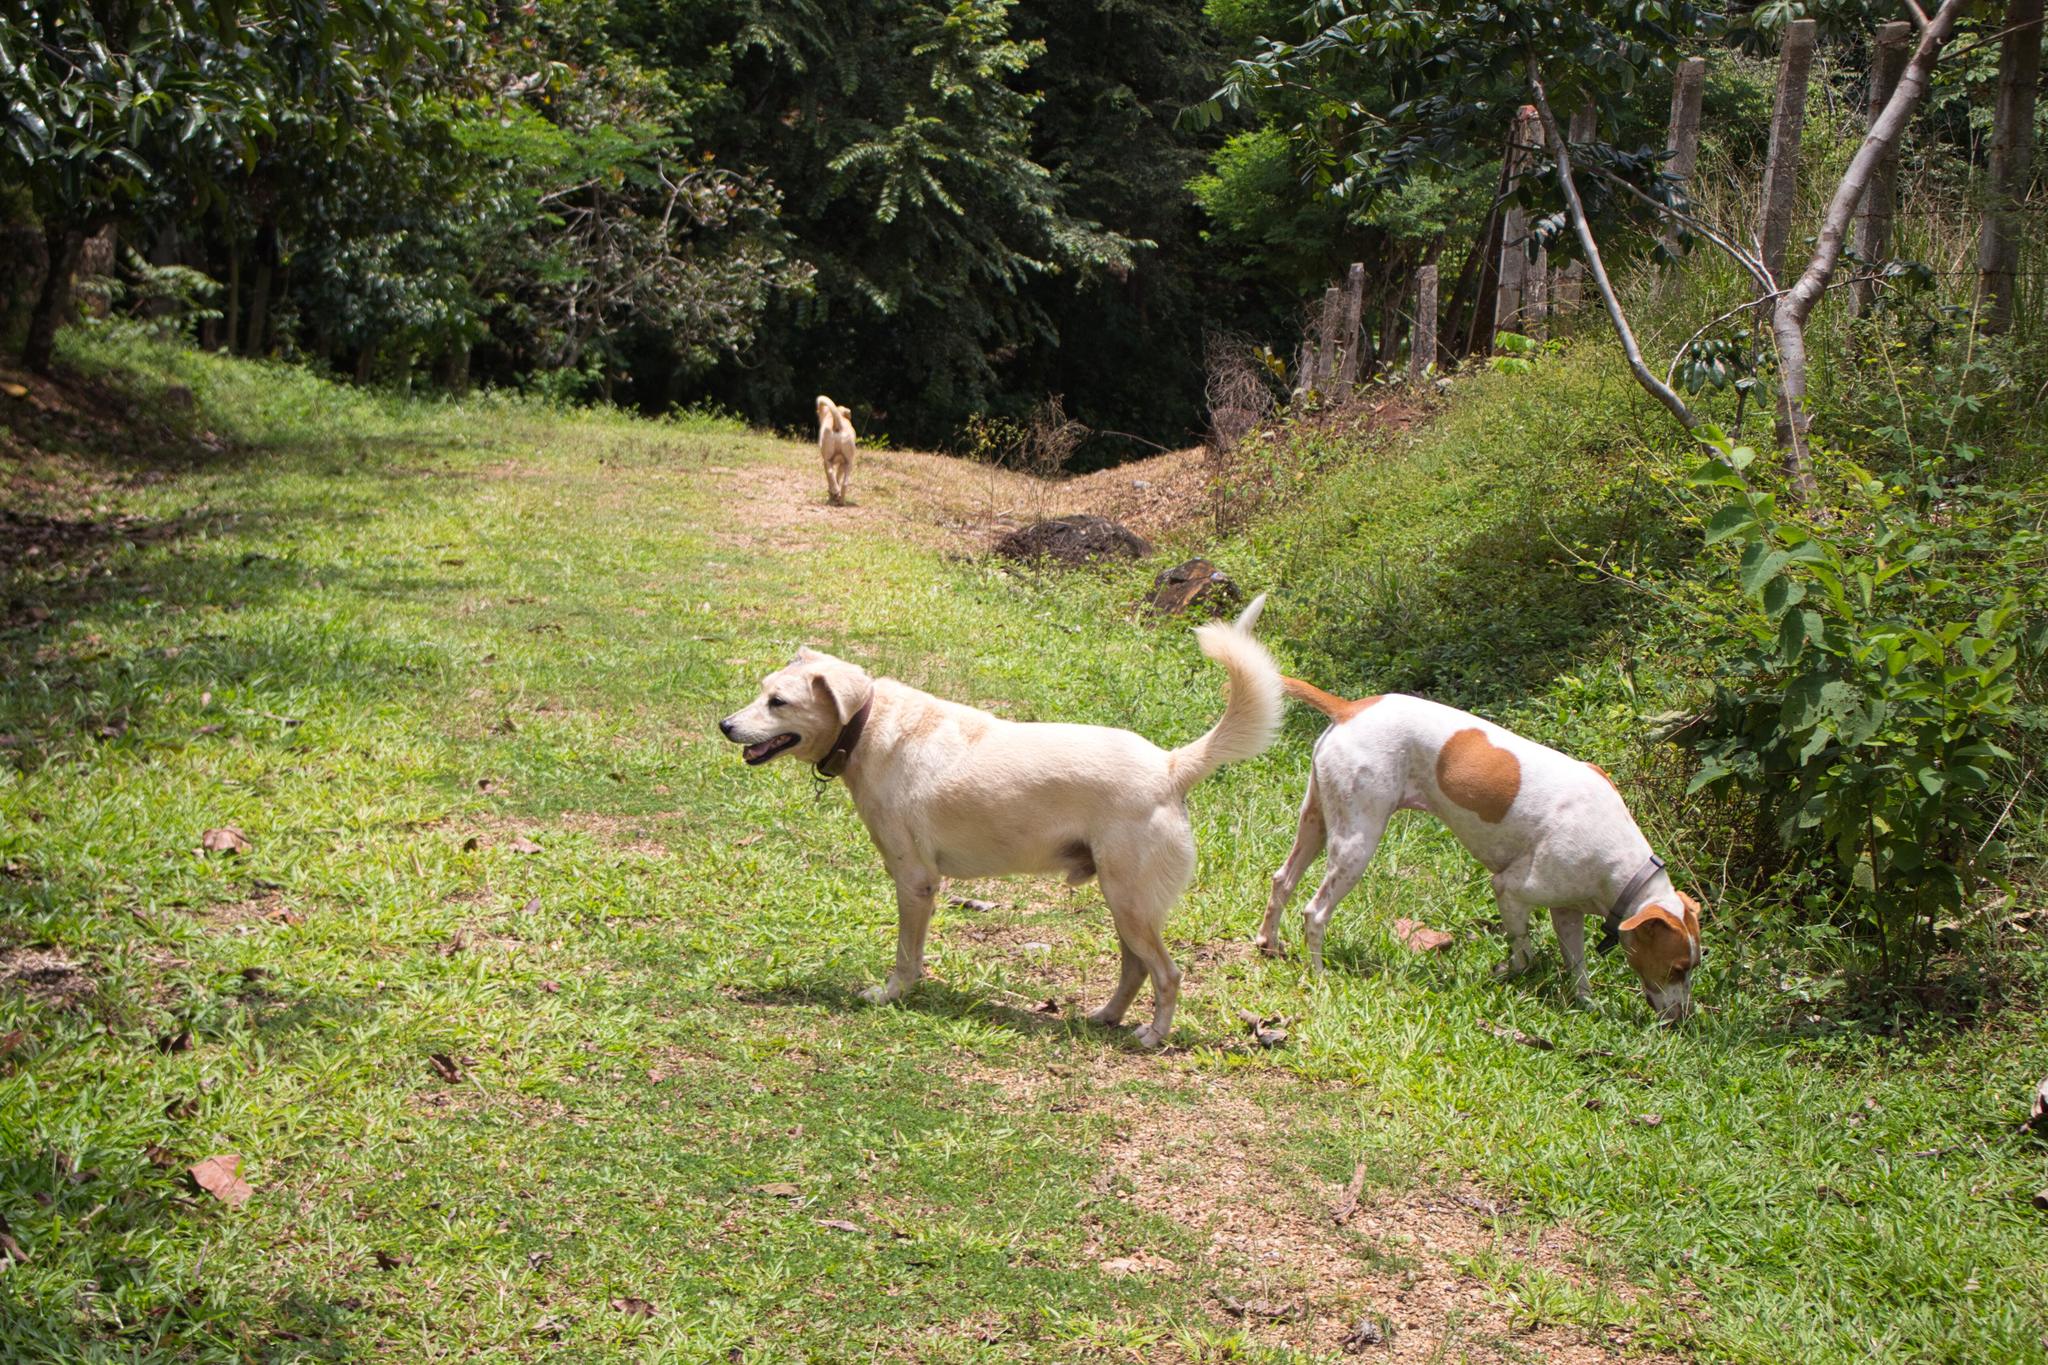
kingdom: Plantae
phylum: Tracheophyta
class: Liliopsida
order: Alismatales
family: Araceae
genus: Xanthosoma
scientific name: Xanthosoma mexicanum
